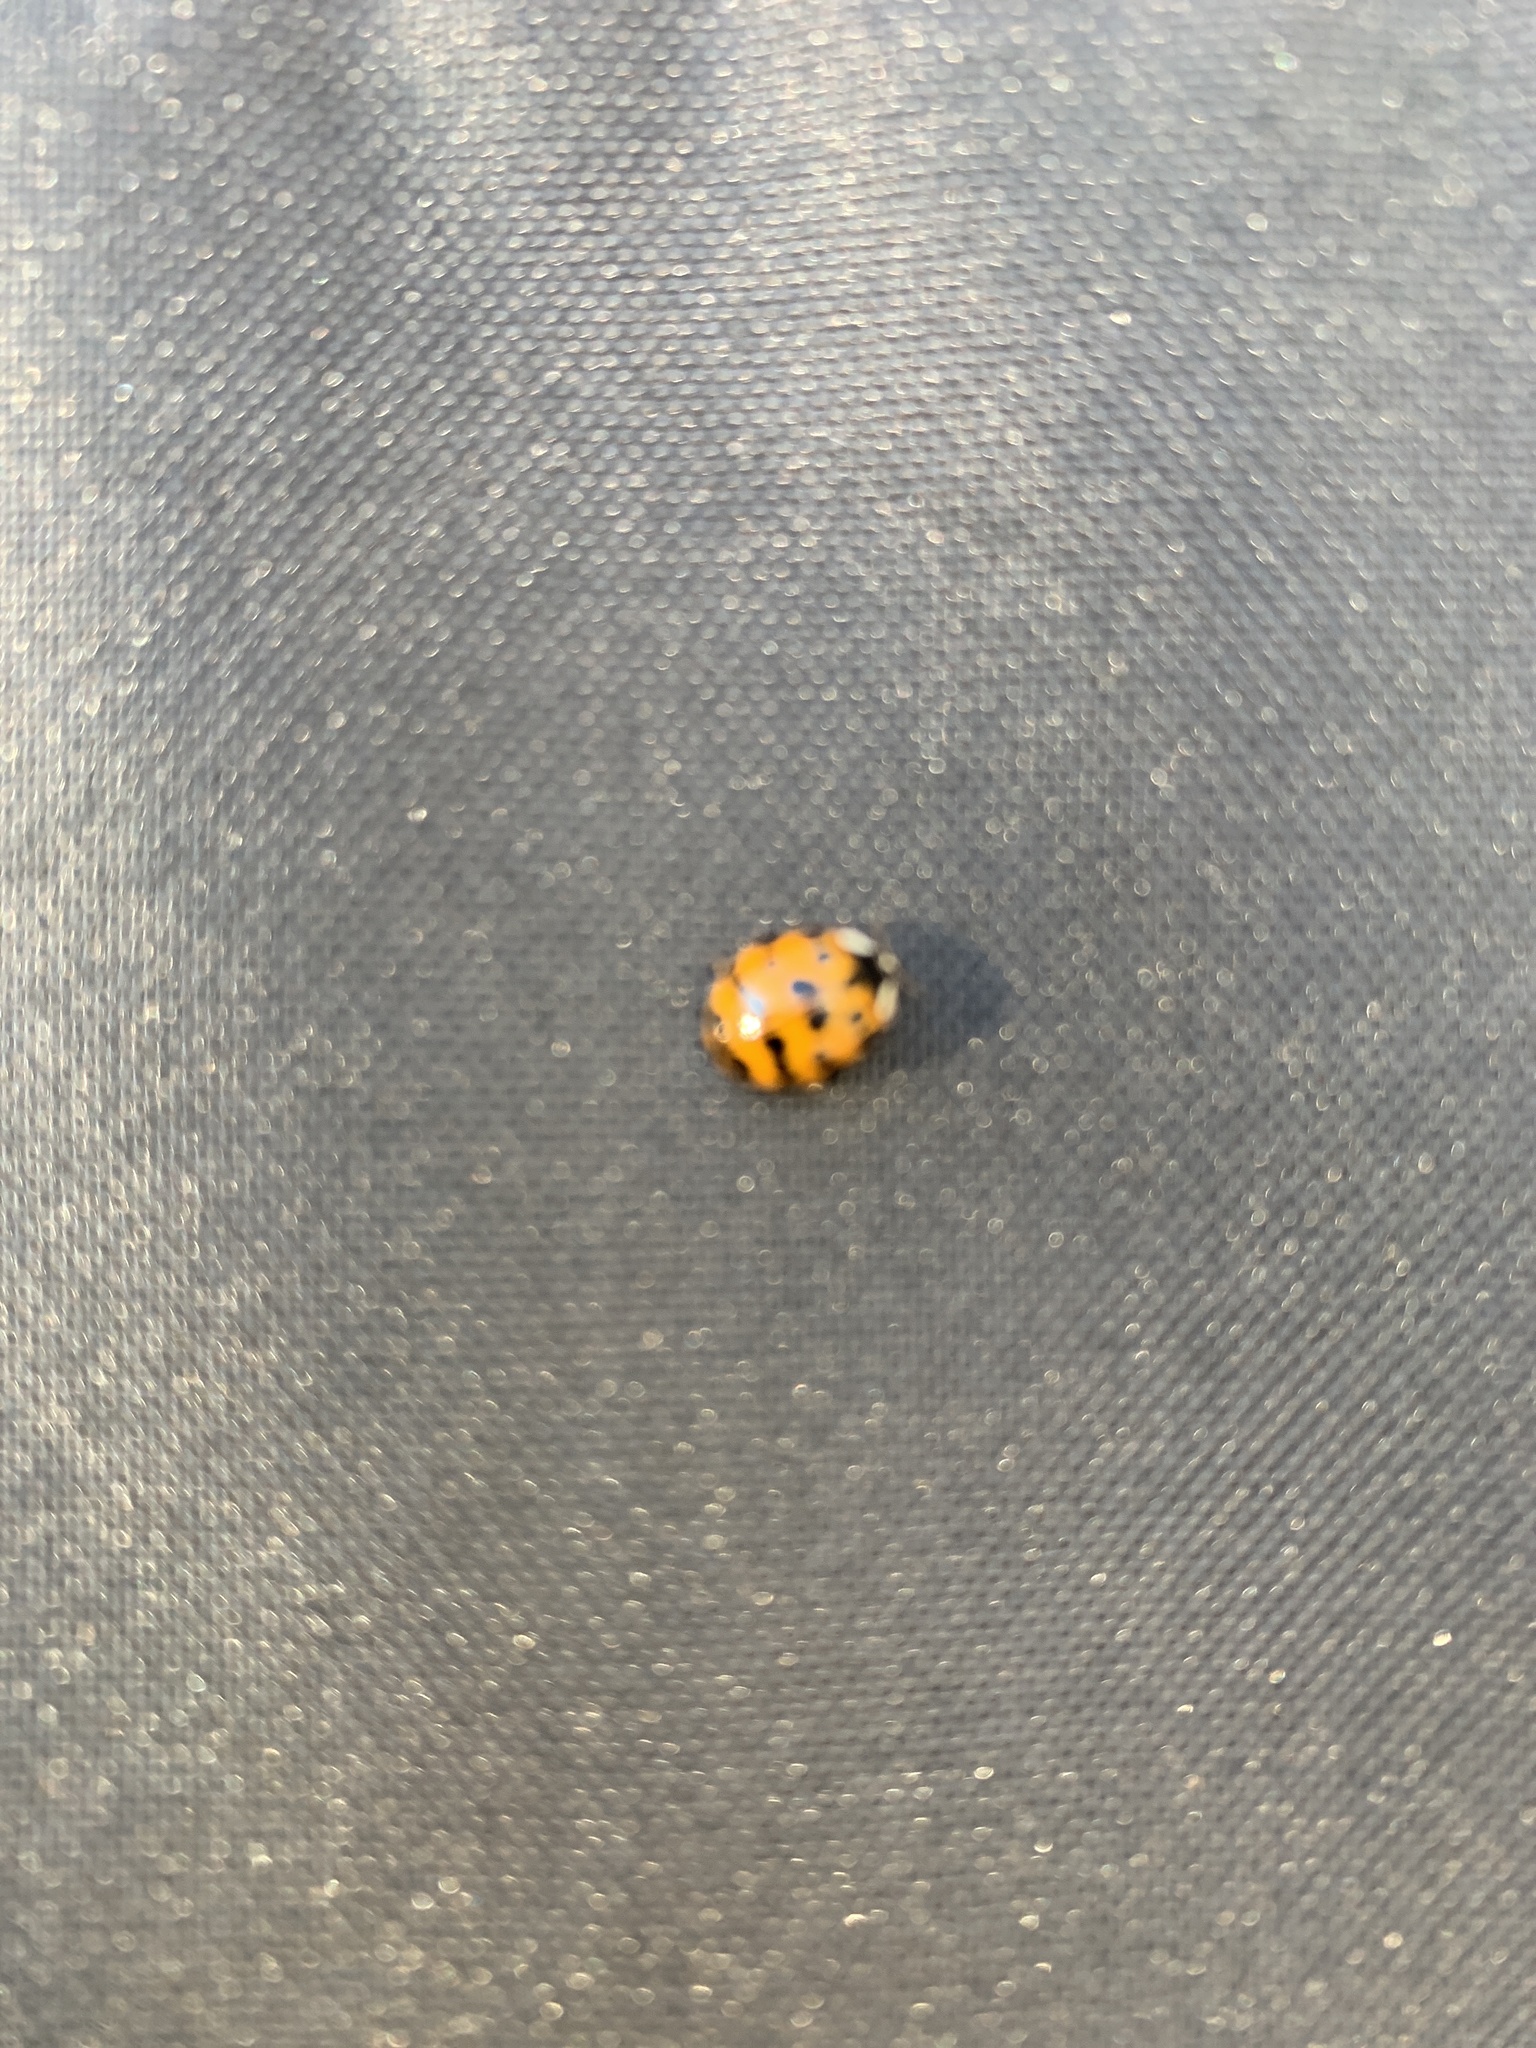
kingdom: Animalia
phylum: Arthropoda
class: Insecta
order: Coleoptera
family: Coccinellidae
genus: Harmonia
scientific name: Harmonia axyridis
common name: Harlequin ladybird
